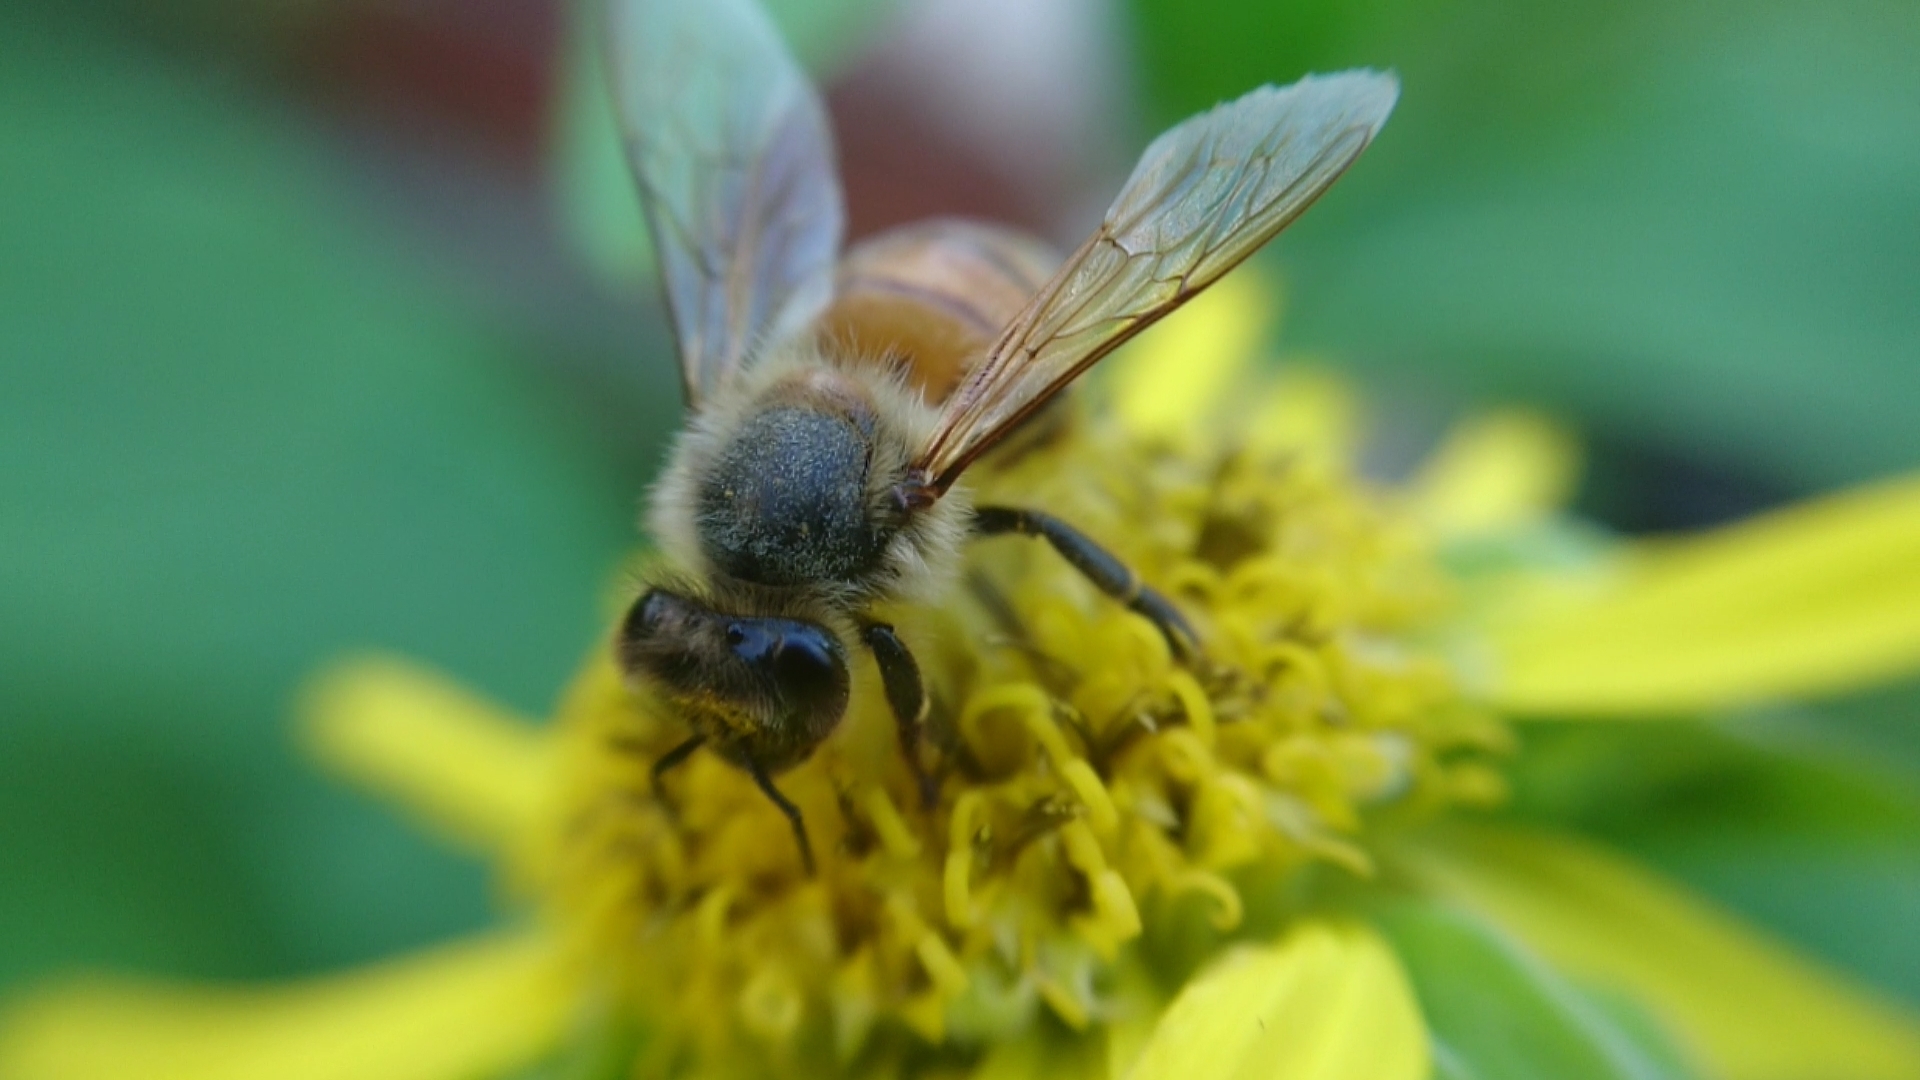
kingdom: Animalia
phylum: Arthropoda
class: Insecta
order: Hymenoptera
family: Apidae
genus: Apis
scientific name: Apis mellifera
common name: Honey bee
